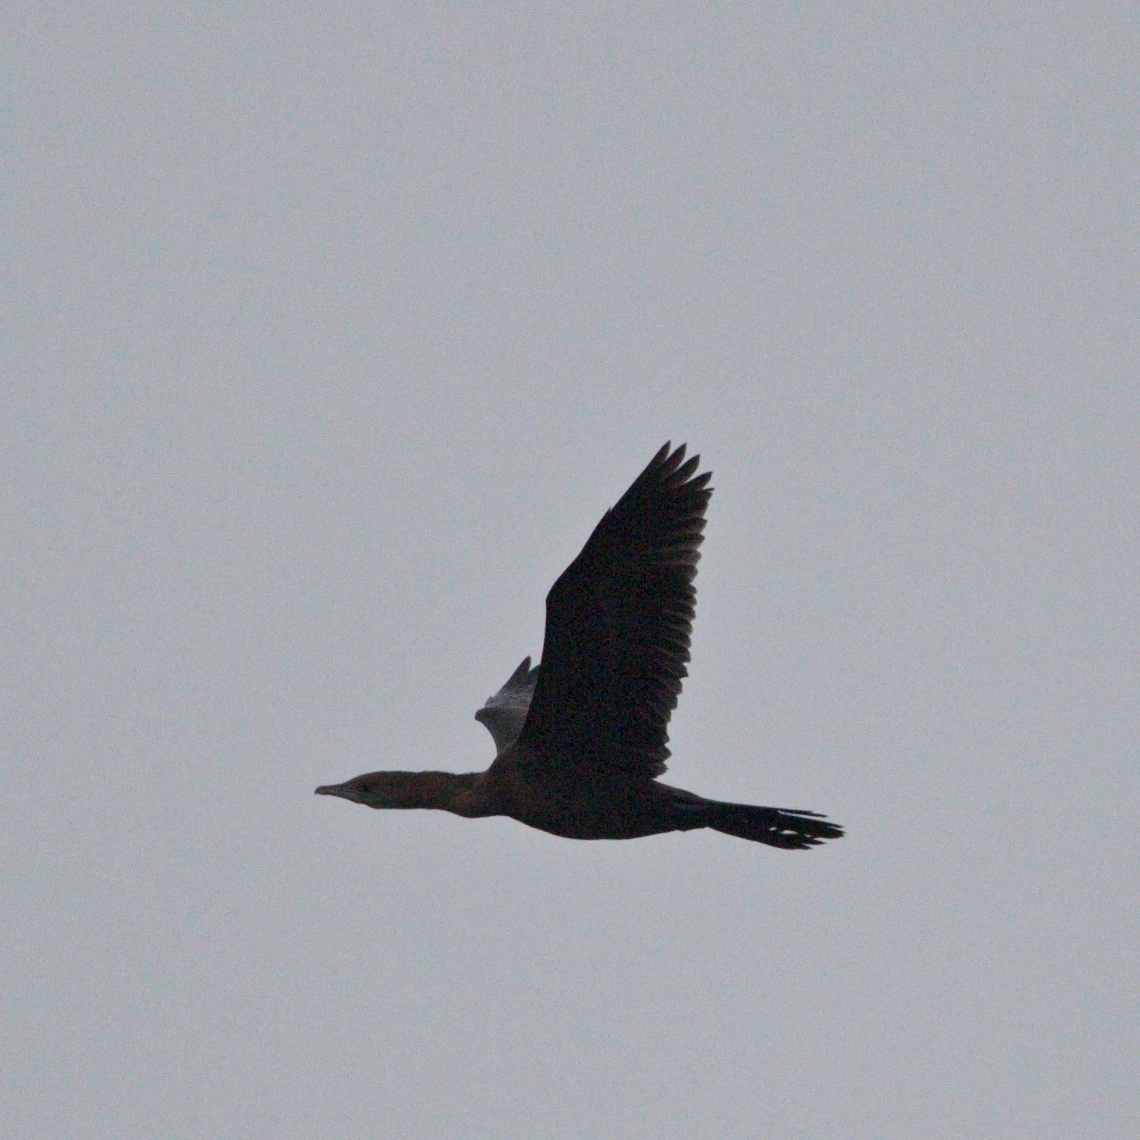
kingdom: Animalia
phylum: Chordata
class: Aves
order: Suliformes
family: Phalacrocoracidae
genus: Microcarbo
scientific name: Microcarbo pygmaeus
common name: Pygmy cormorant
